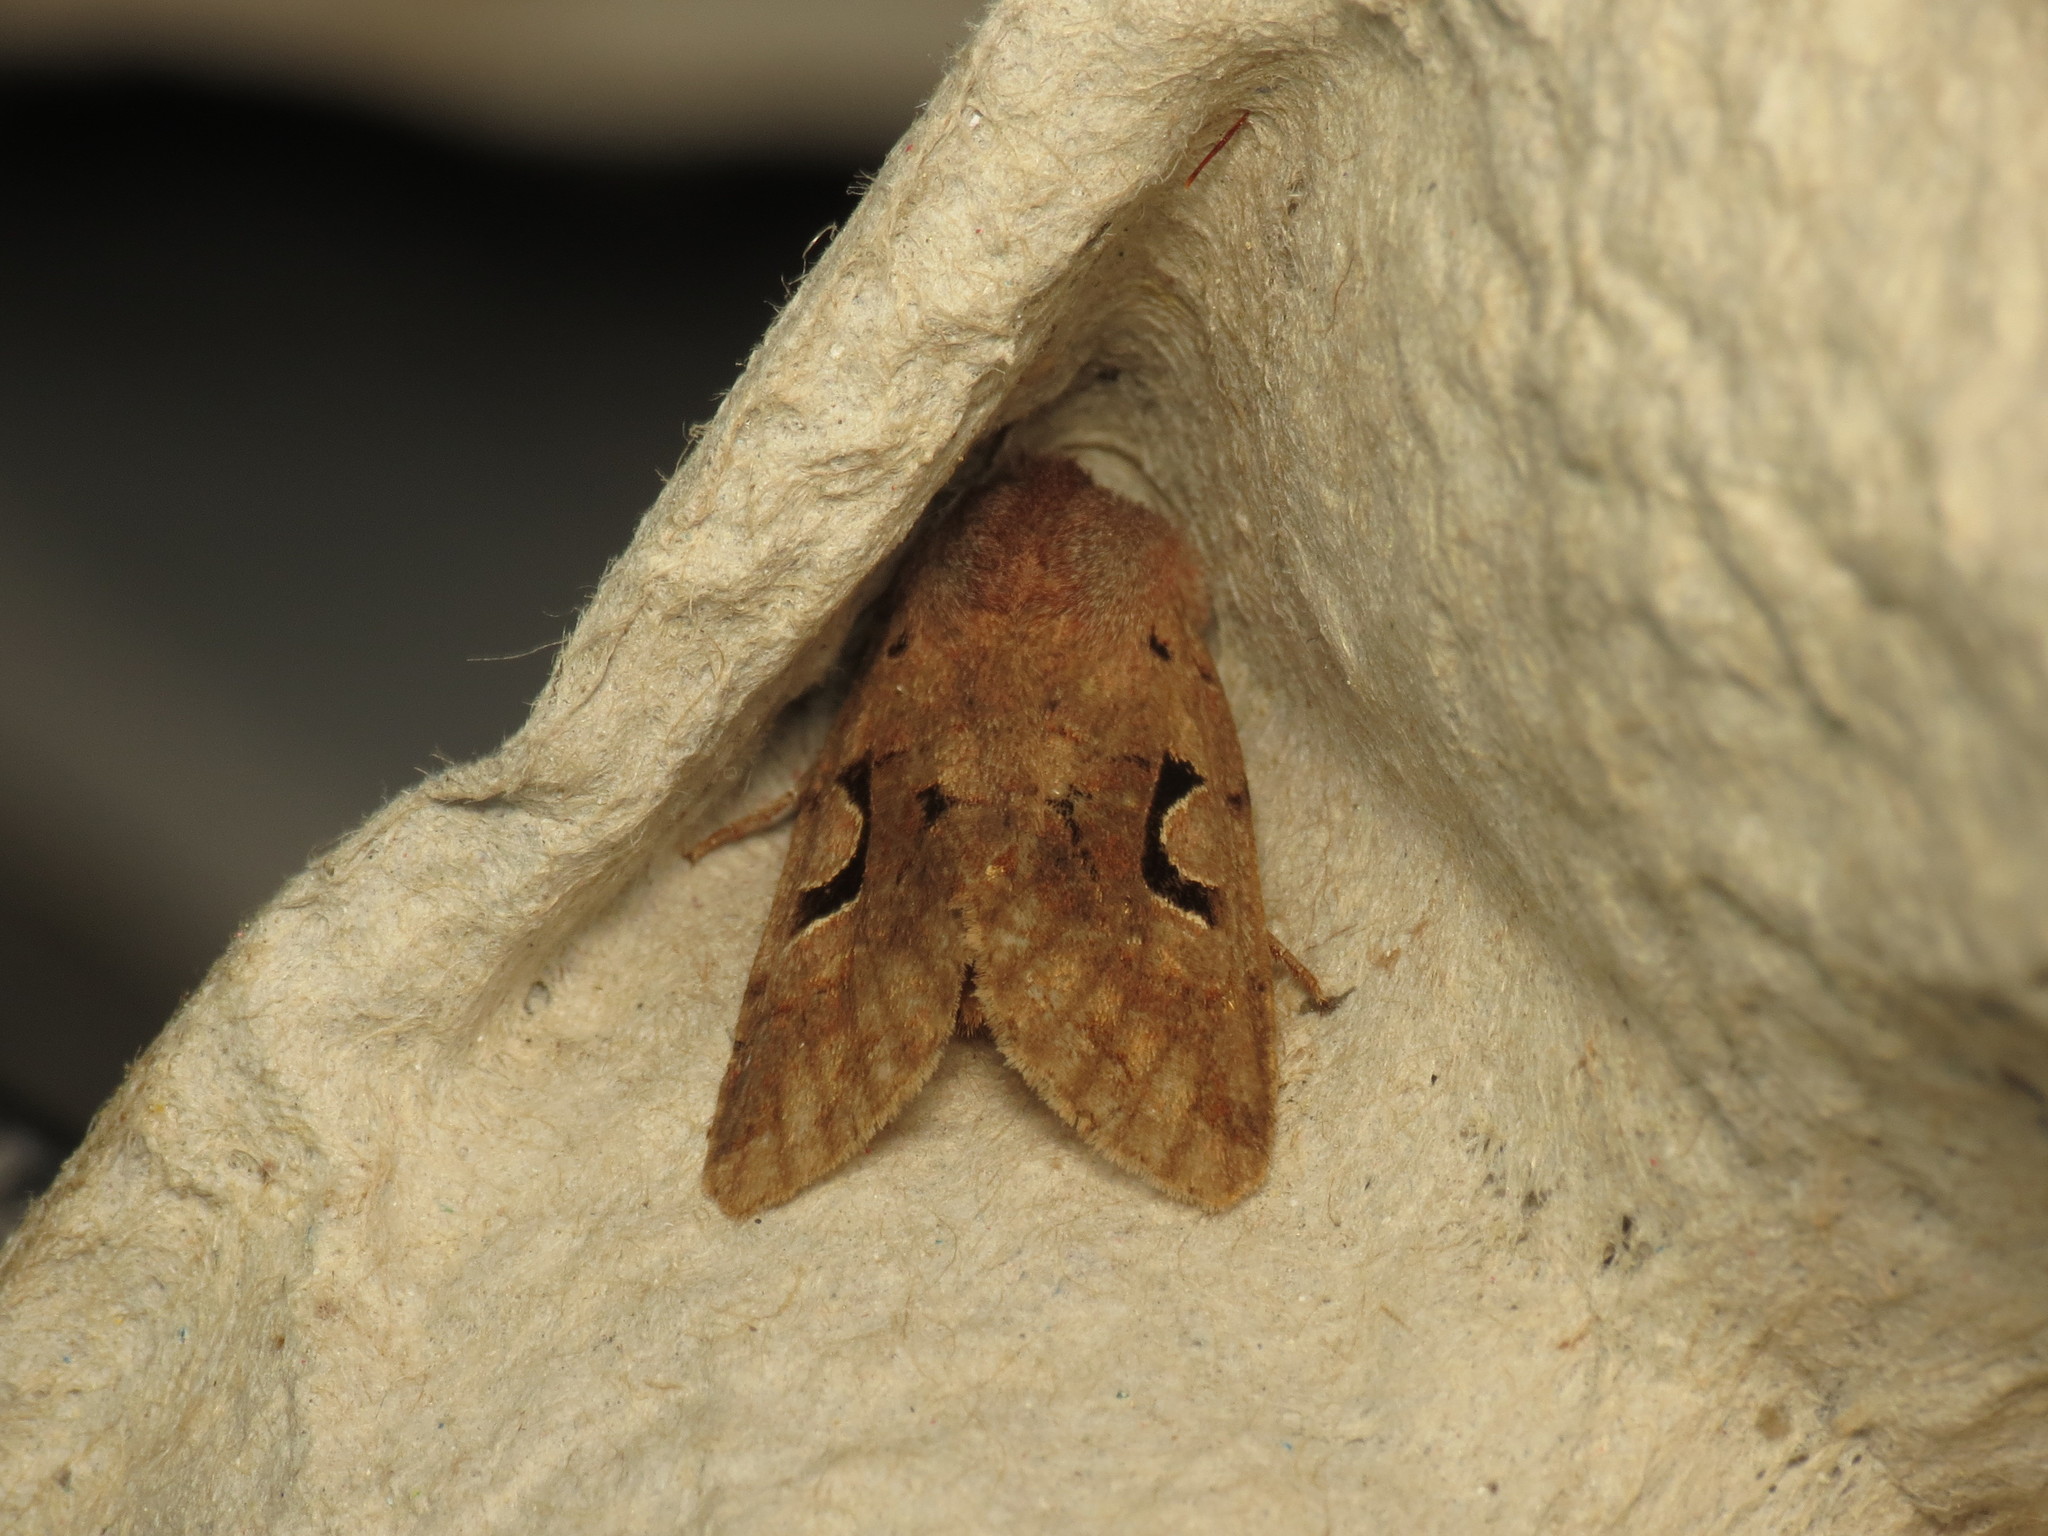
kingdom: Animalia
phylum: Arthropoda
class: Insecta
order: Lepidoptera
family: Noctuidae
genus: Orthosia
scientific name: Orthosia gothica
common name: Hebrew character
